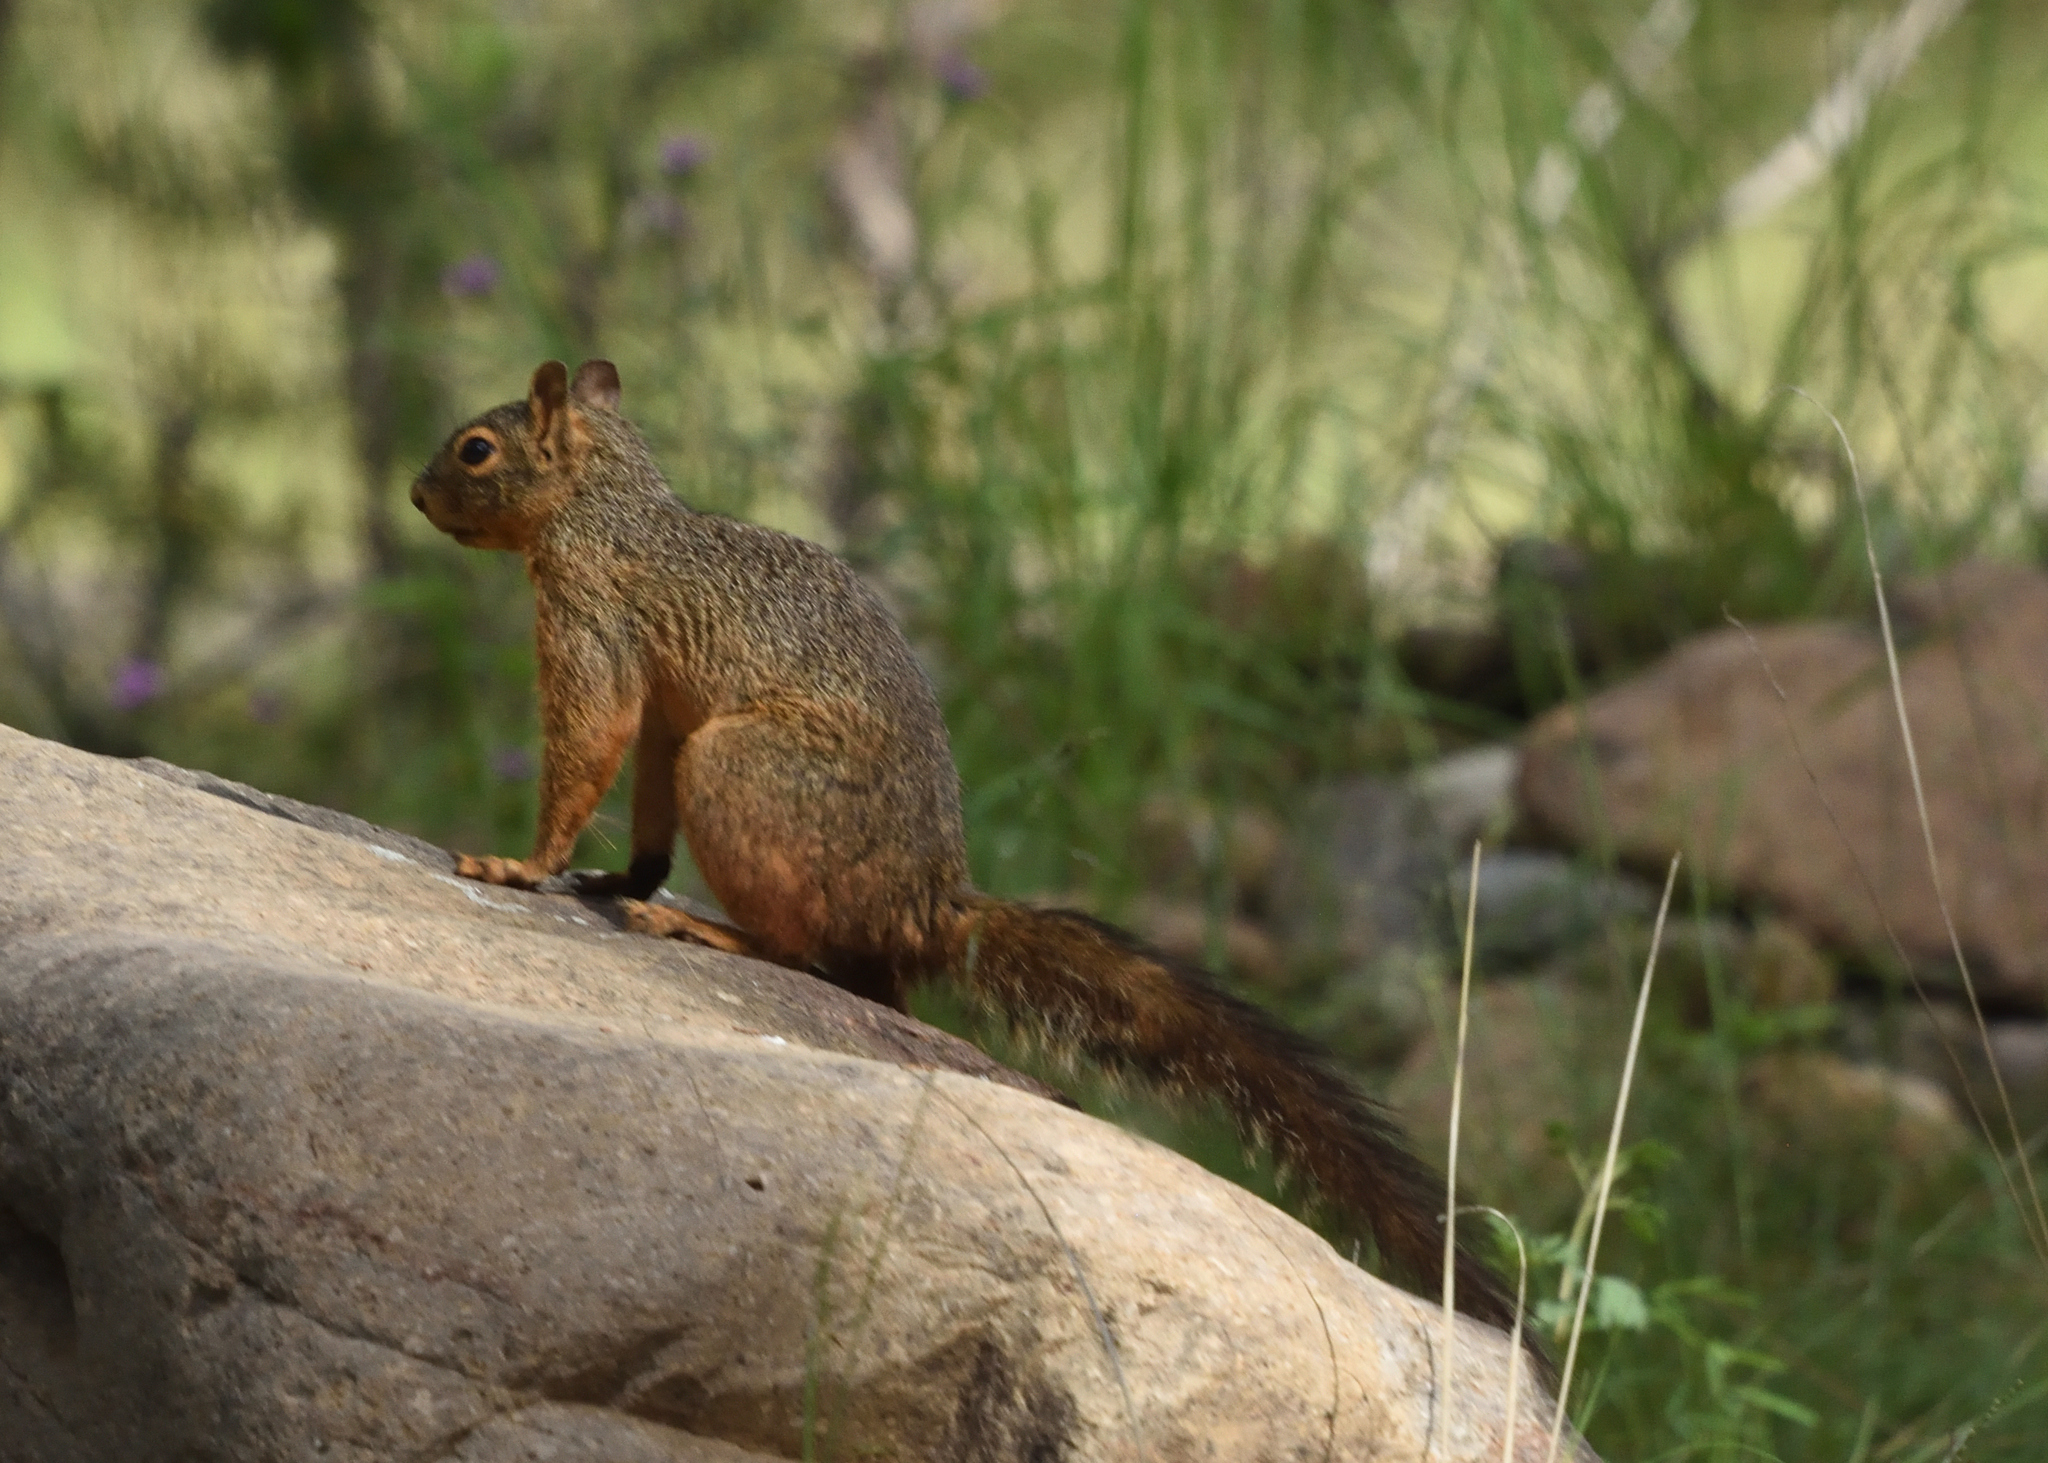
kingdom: Animalia
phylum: Chordata
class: Mammalia
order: Rodentia
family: Sciuridae
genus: Sciurus
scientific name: Sciurus nayaritensis
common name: Mexican fox squirrel
